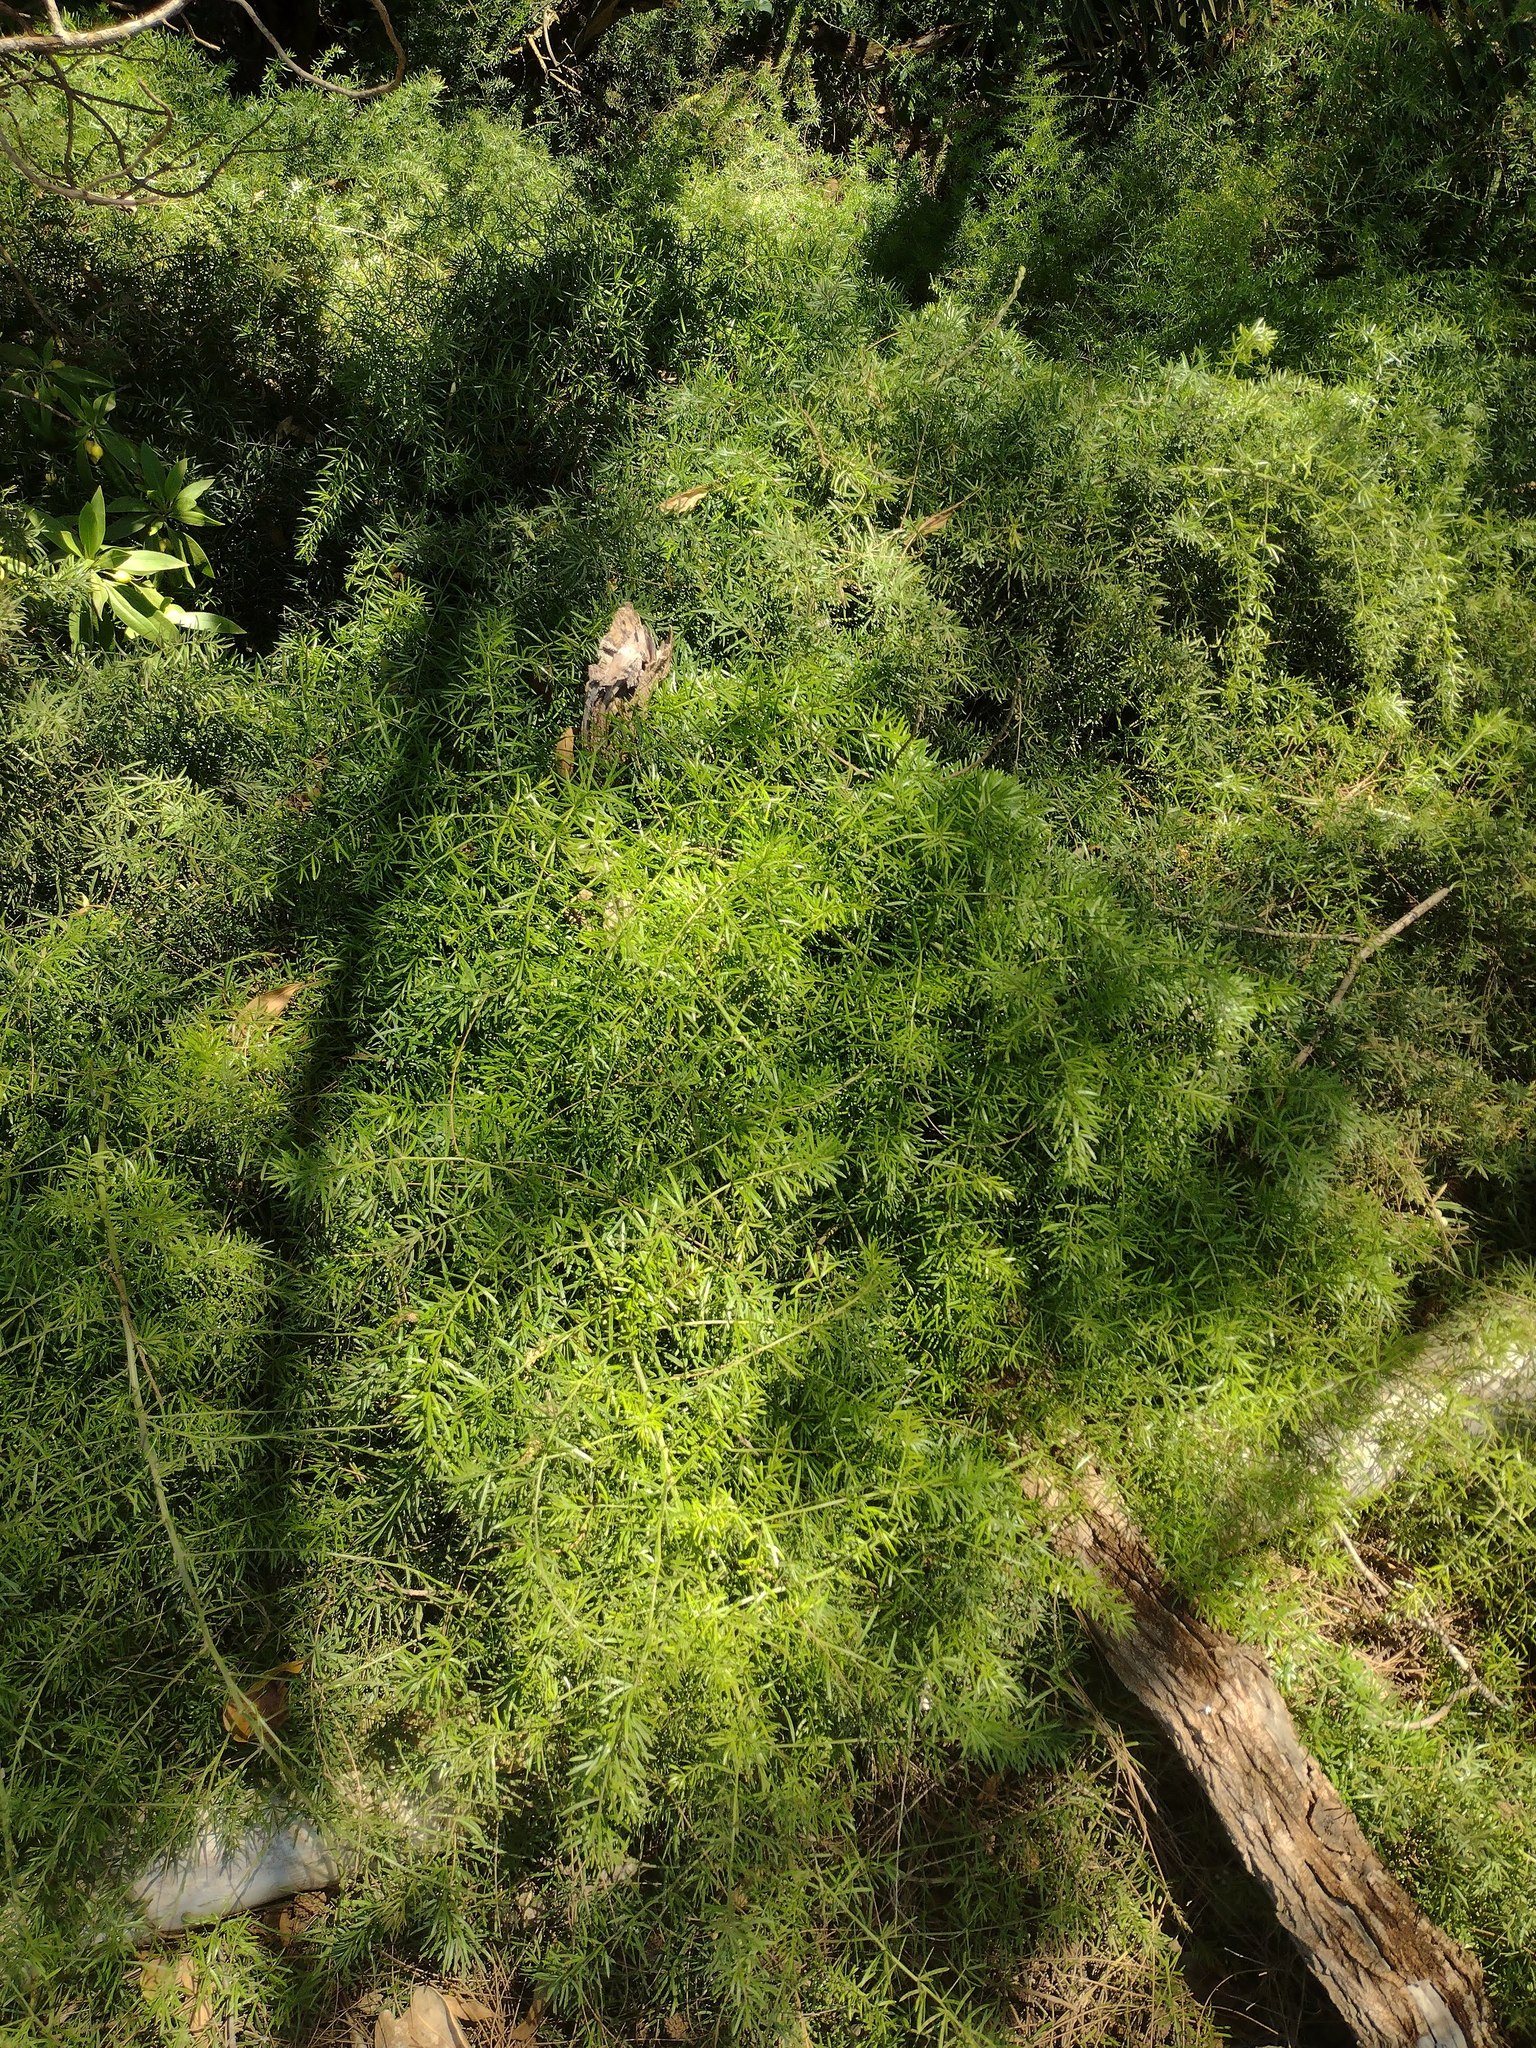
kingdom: Plantae
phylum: Tracheophyta
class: Liliopsida
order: Asparagales
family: Asparagaceae
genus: Asparagus
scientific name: Asparagus aethiopicus
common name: Sprenger's asparagus fern
